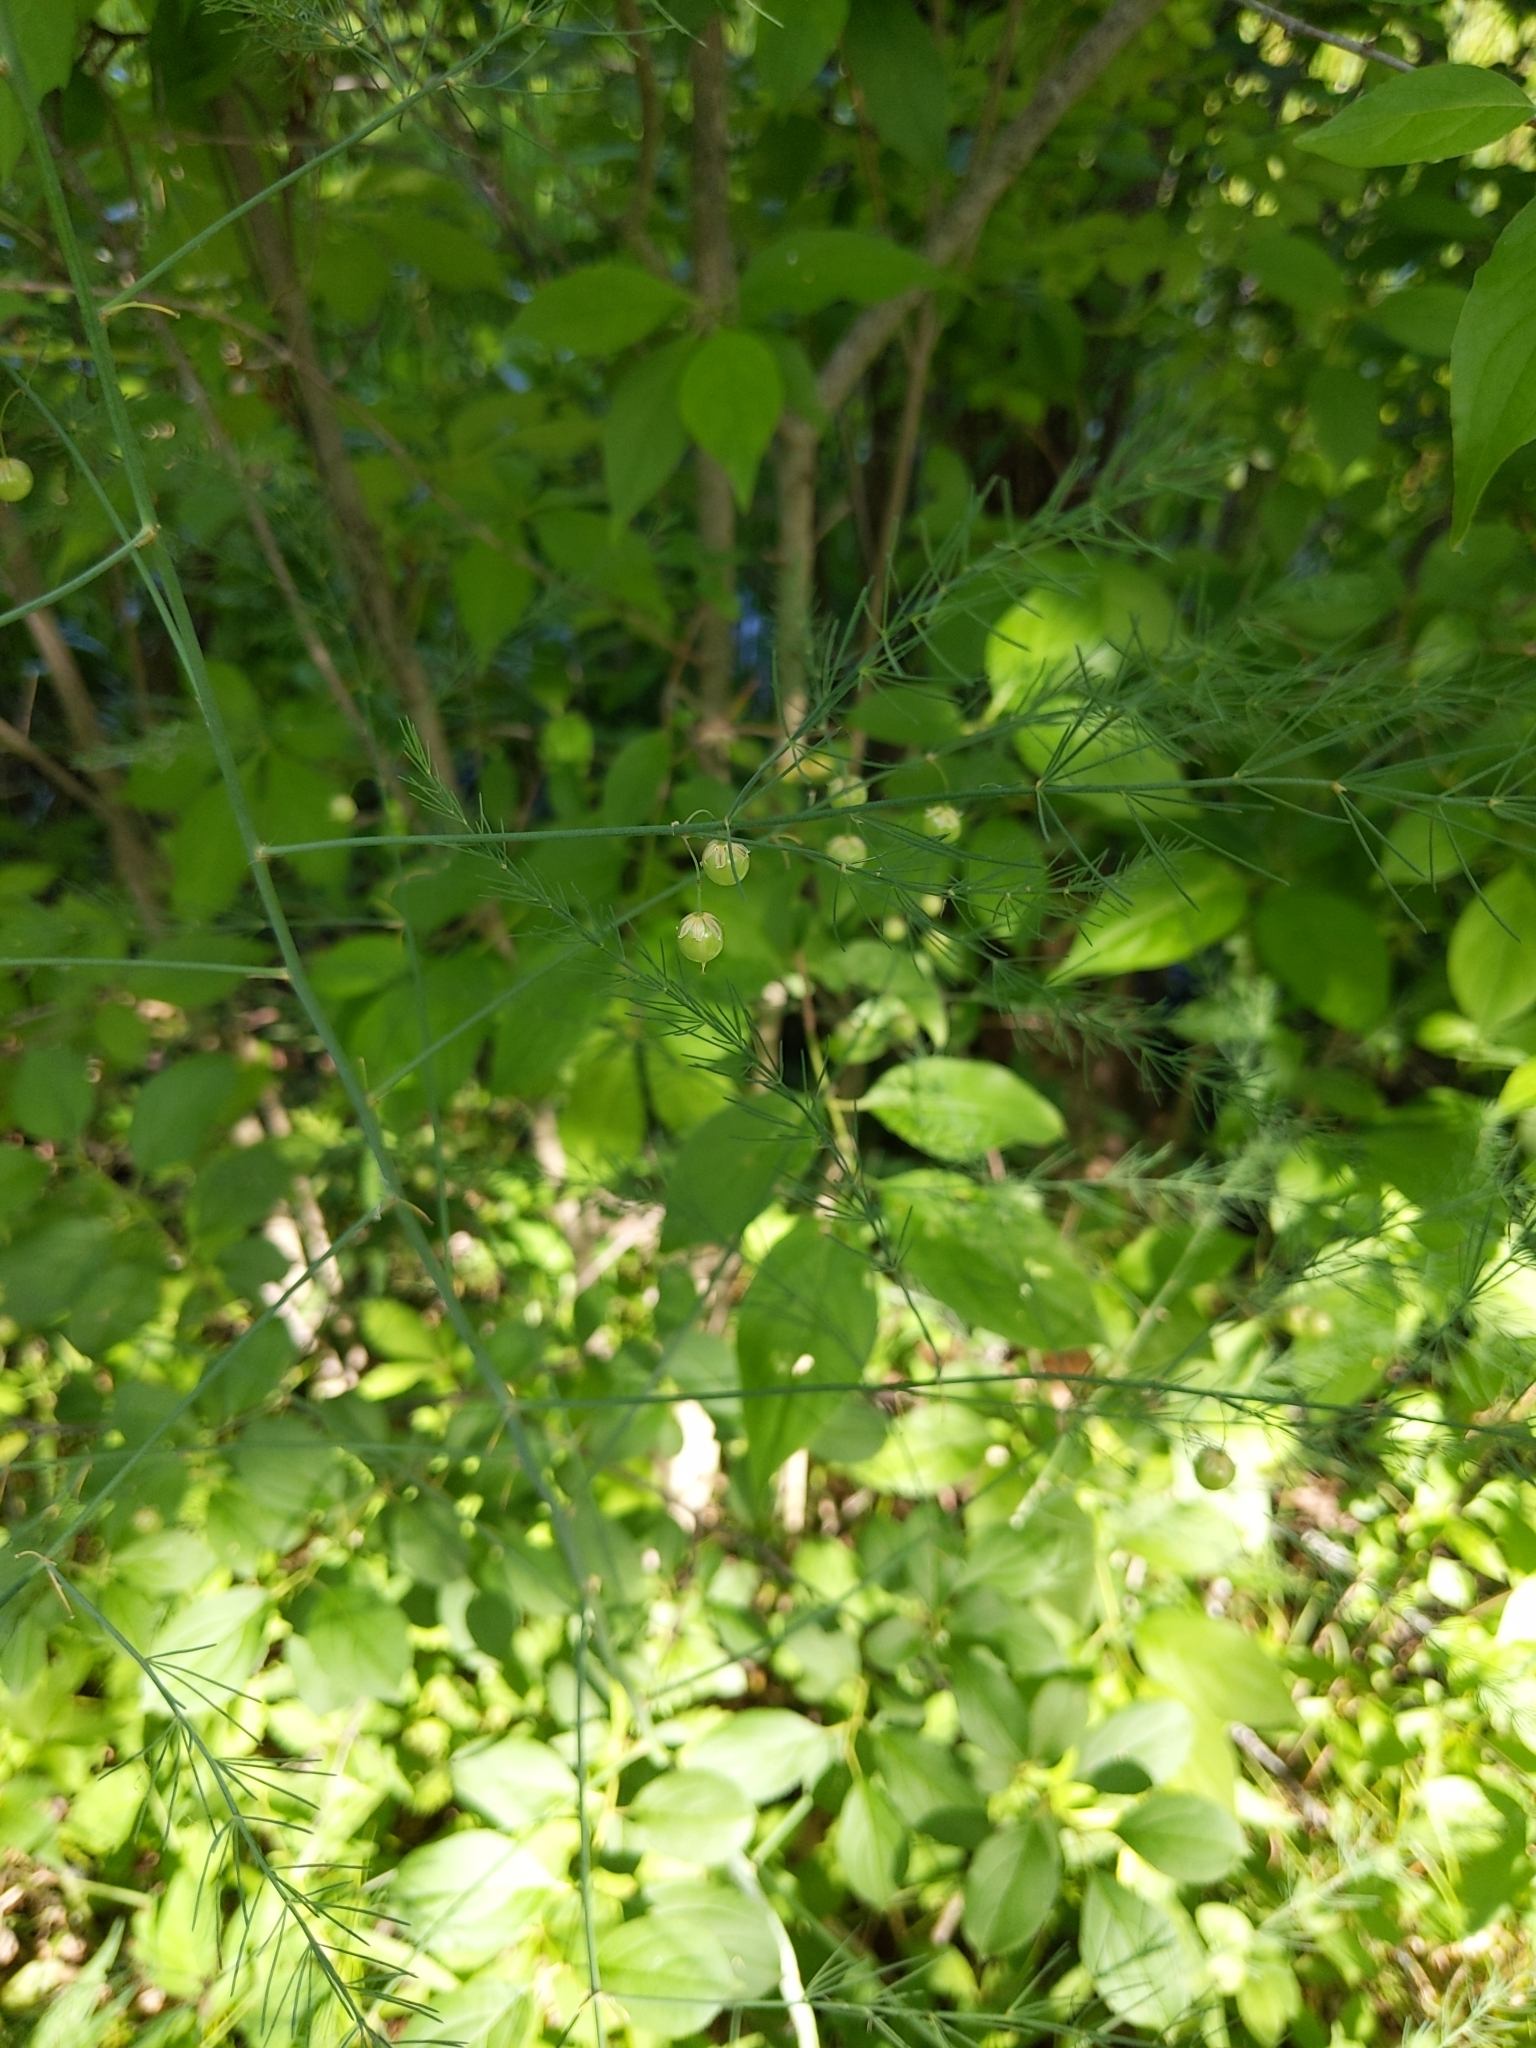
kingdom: Plantae
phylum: Tracheophyta
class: Liliopsida
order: Asparagales
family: Asparagaceae
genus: Asparagus
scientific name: Asparagus officinalis
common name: Garden asparagus
